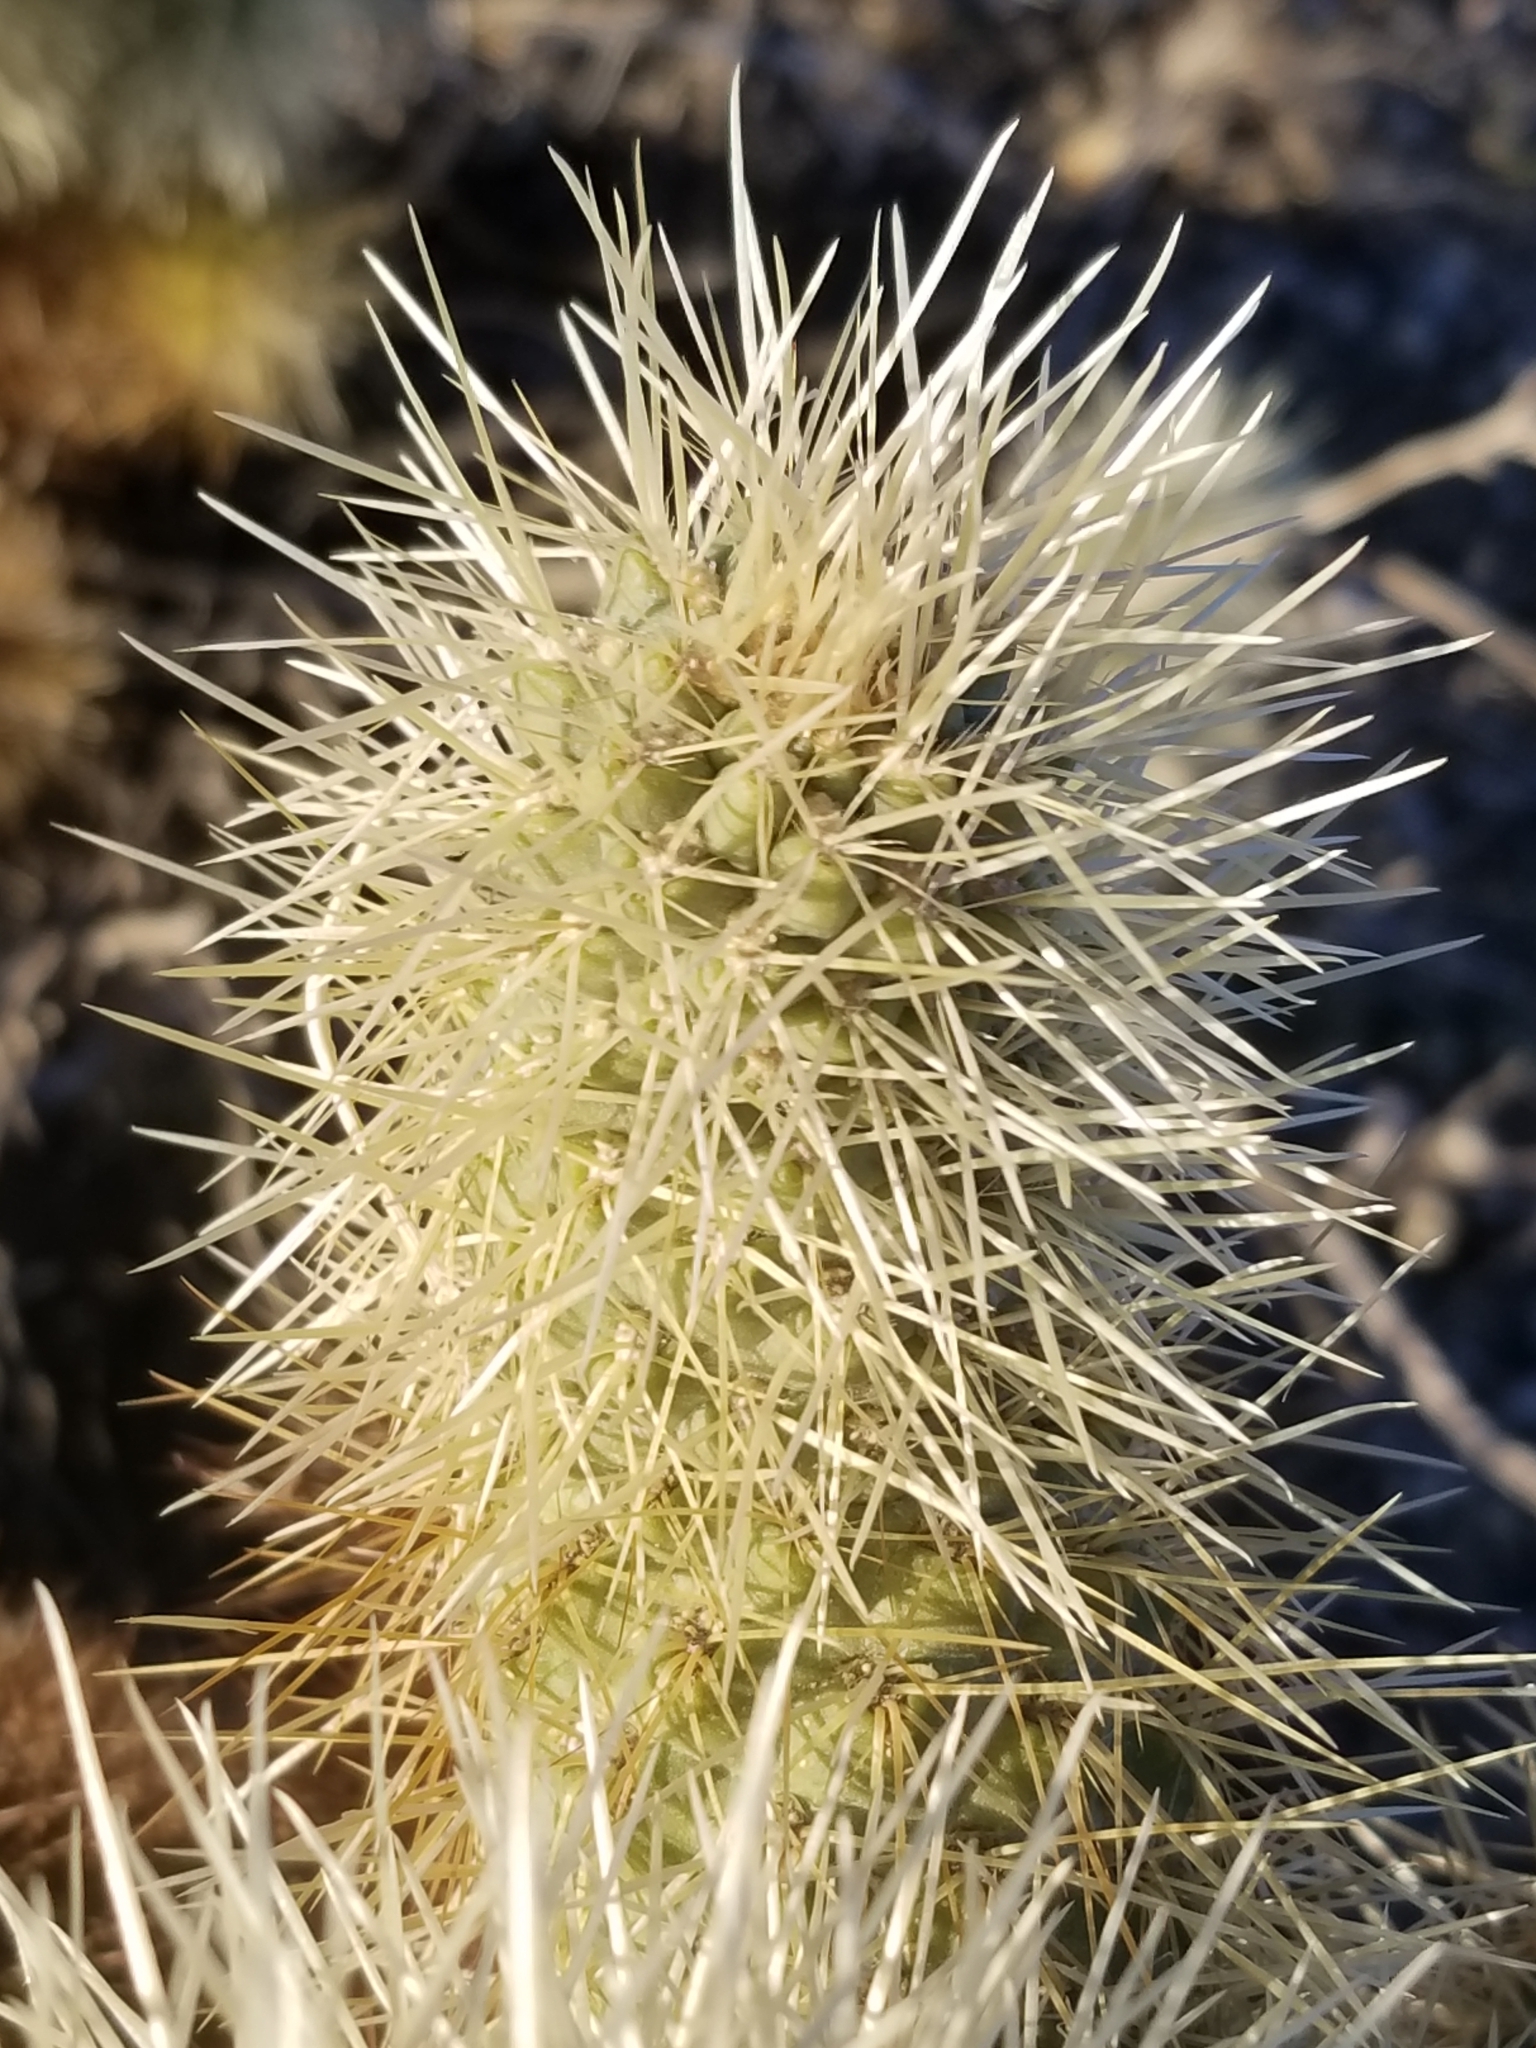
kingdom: Plantae
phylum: Tracheophyta
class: Magnoliopsida
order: Caryophyllales
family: Cactaceae
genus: Cylindropuntia
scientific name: Cylindropuntia fosbergii
